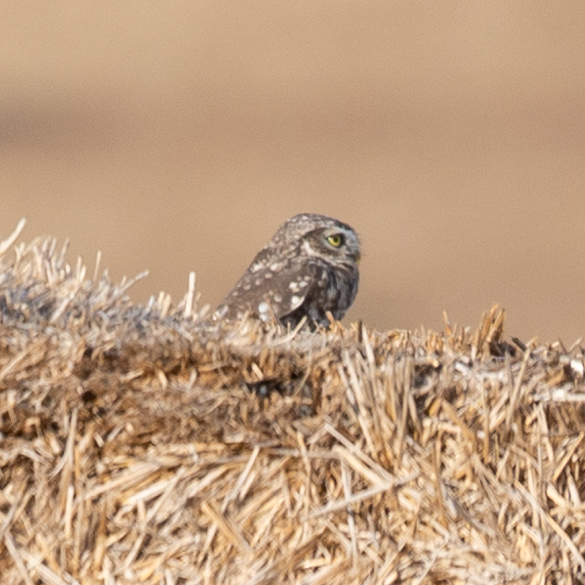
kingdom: Animalia
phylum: Chordata
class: Aves
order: Strigiformes
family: Strigidae
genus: Athene
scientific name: Athene noctua
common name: Little owl
